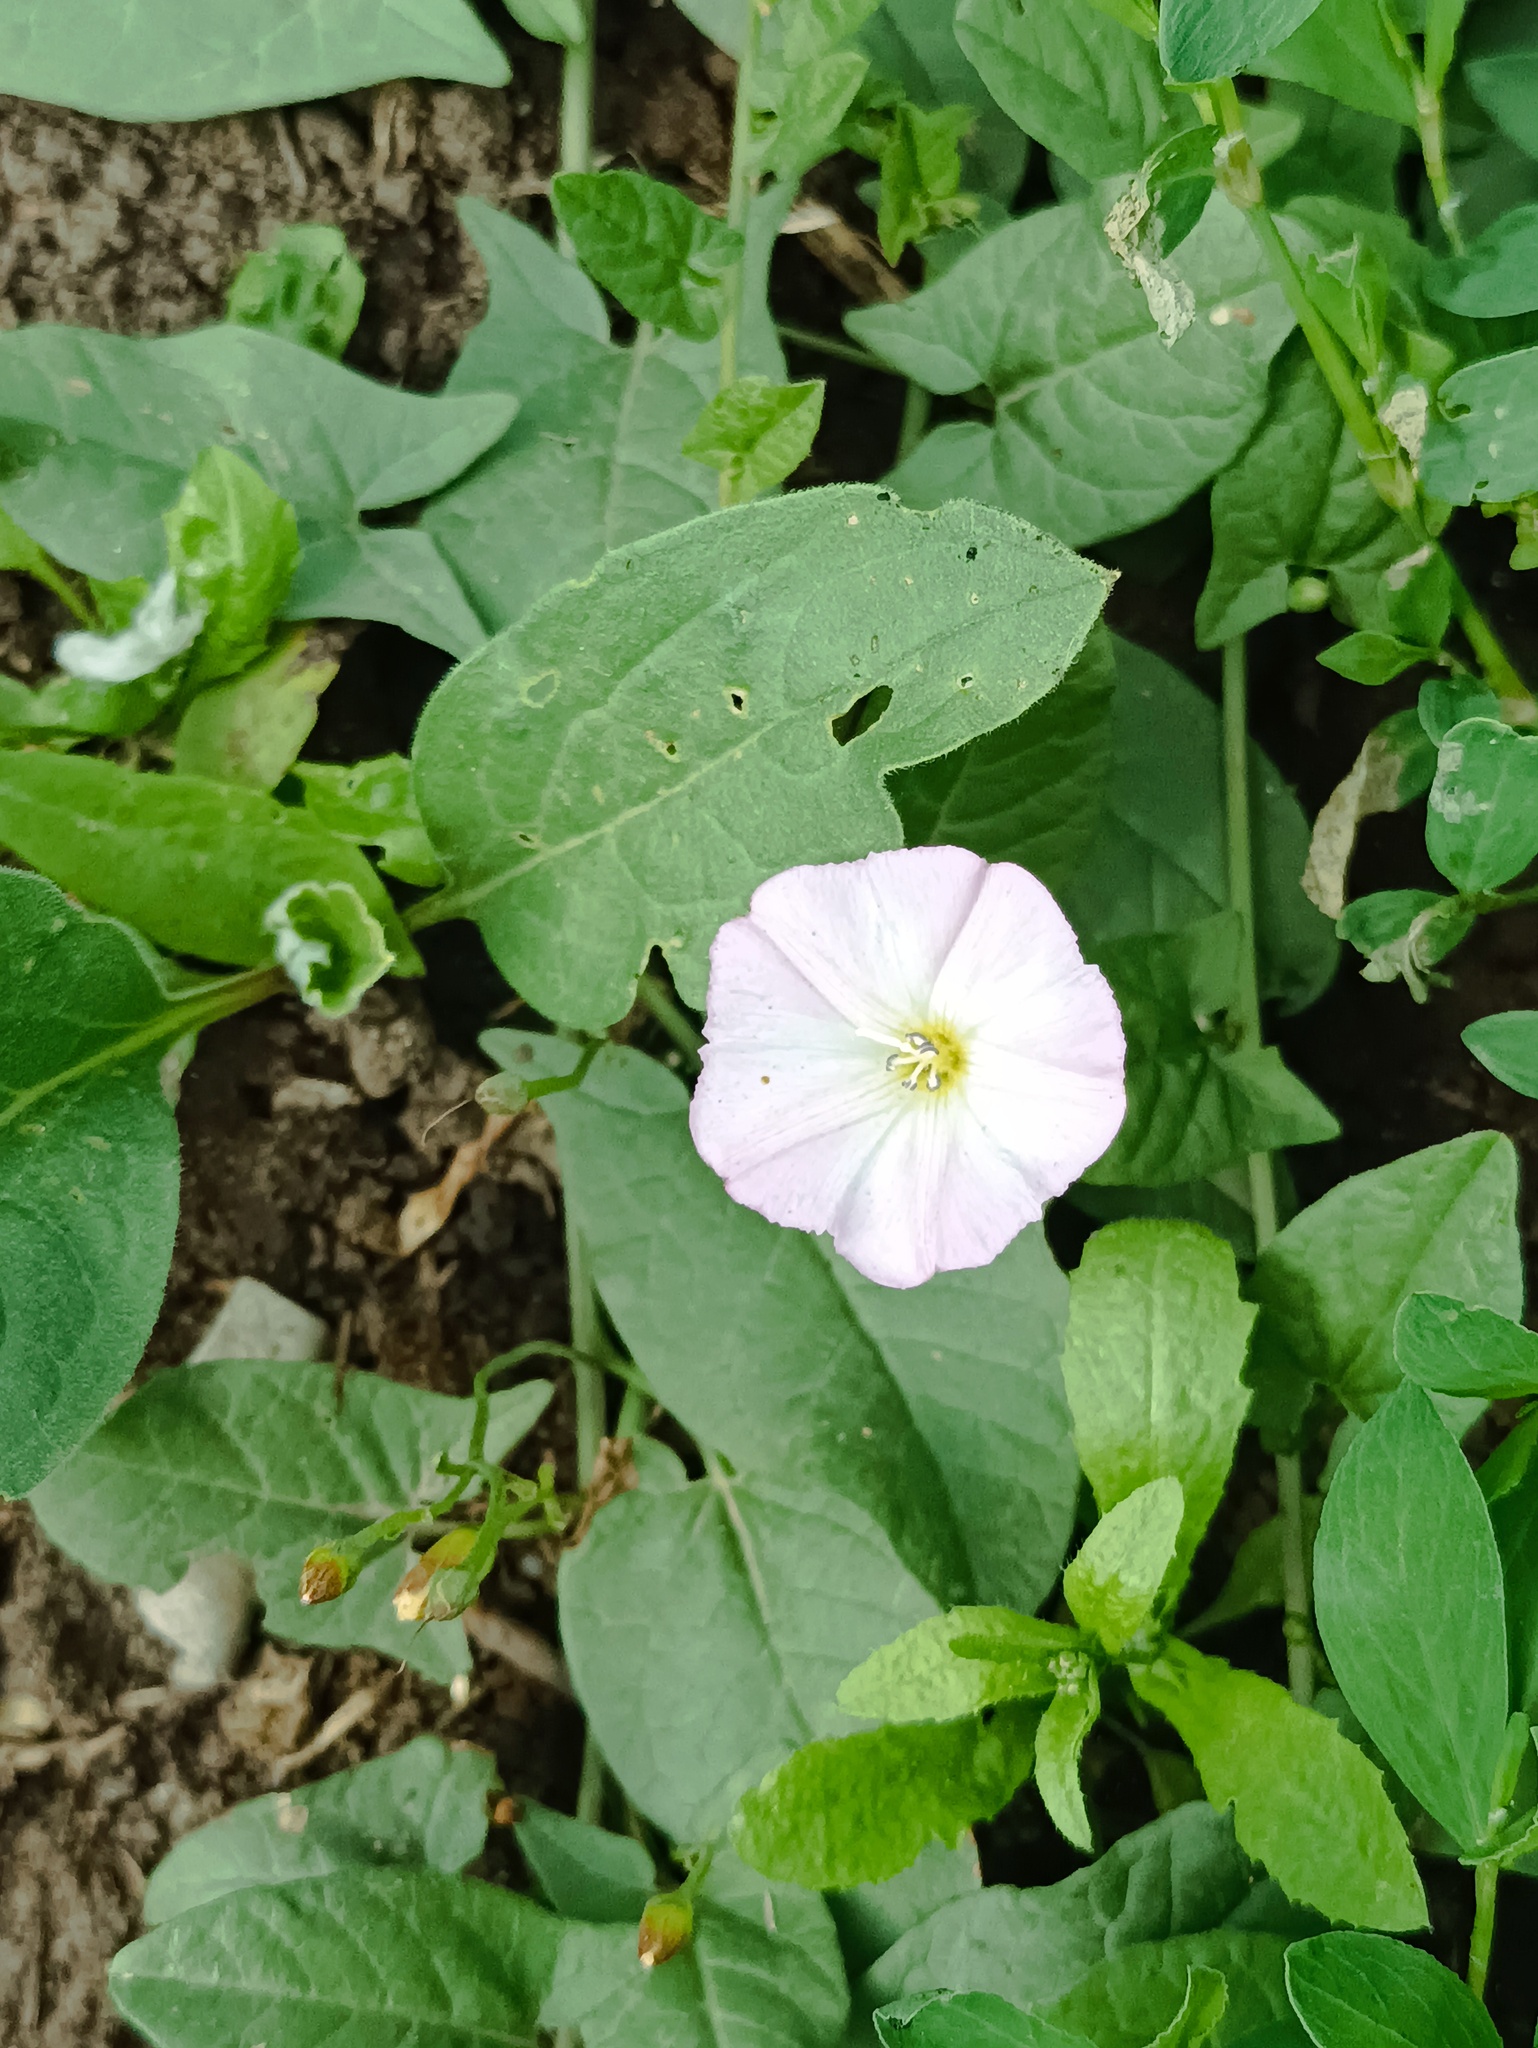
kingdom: Plantae
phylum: Tracheophyta
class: Magnoliopsida
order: Solanales
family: Convolvulaceae
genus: Convolvulus
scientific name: Convolvulus arvensis
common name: Field bindweed
